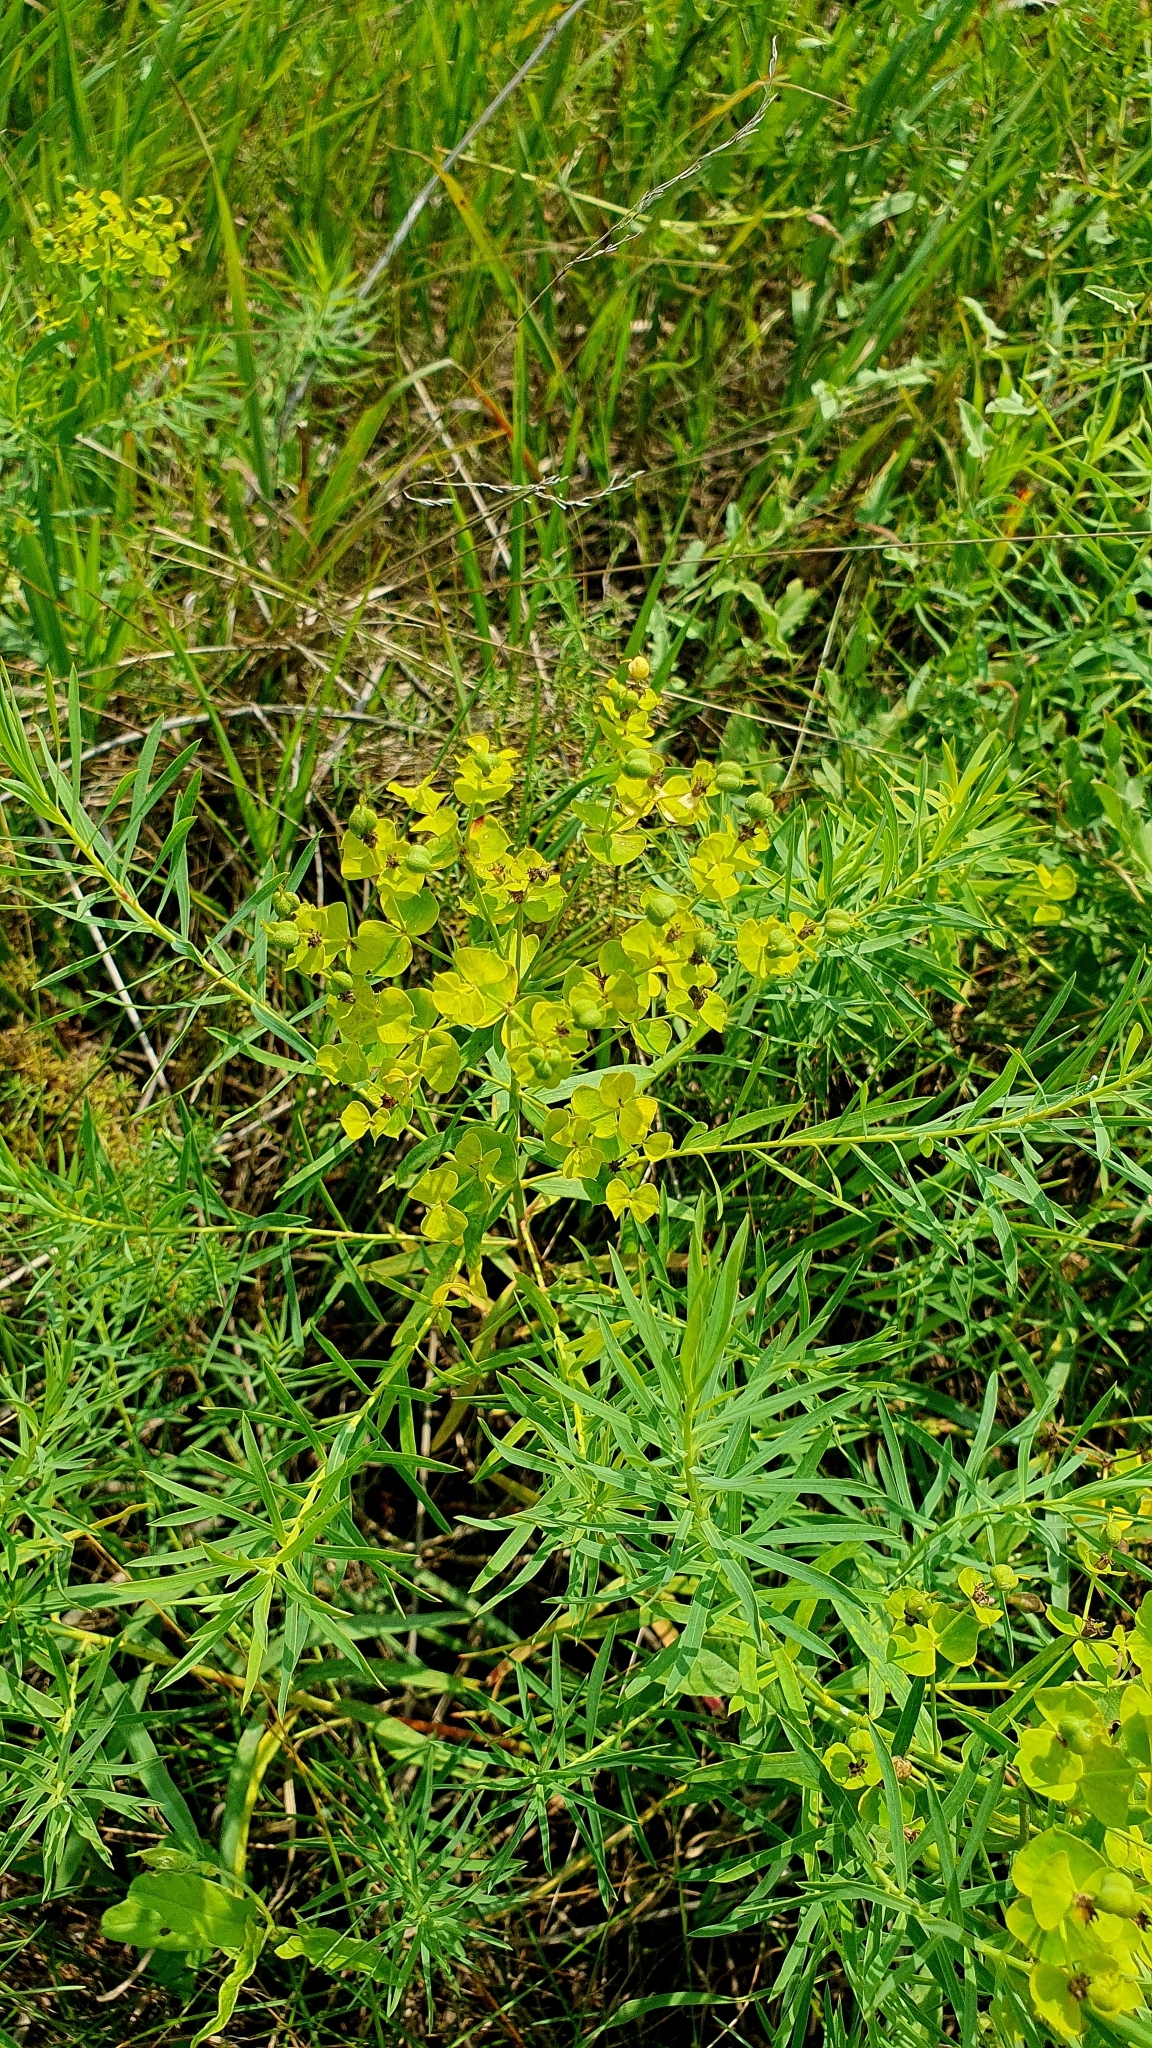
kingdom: Plantae
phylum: Tracheophyta
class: Magnoliopsida
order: Malpighiales
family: Euphorbiaceae
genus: Euphorbia
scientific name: Euphorbia virgata
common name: Leafy spurge
